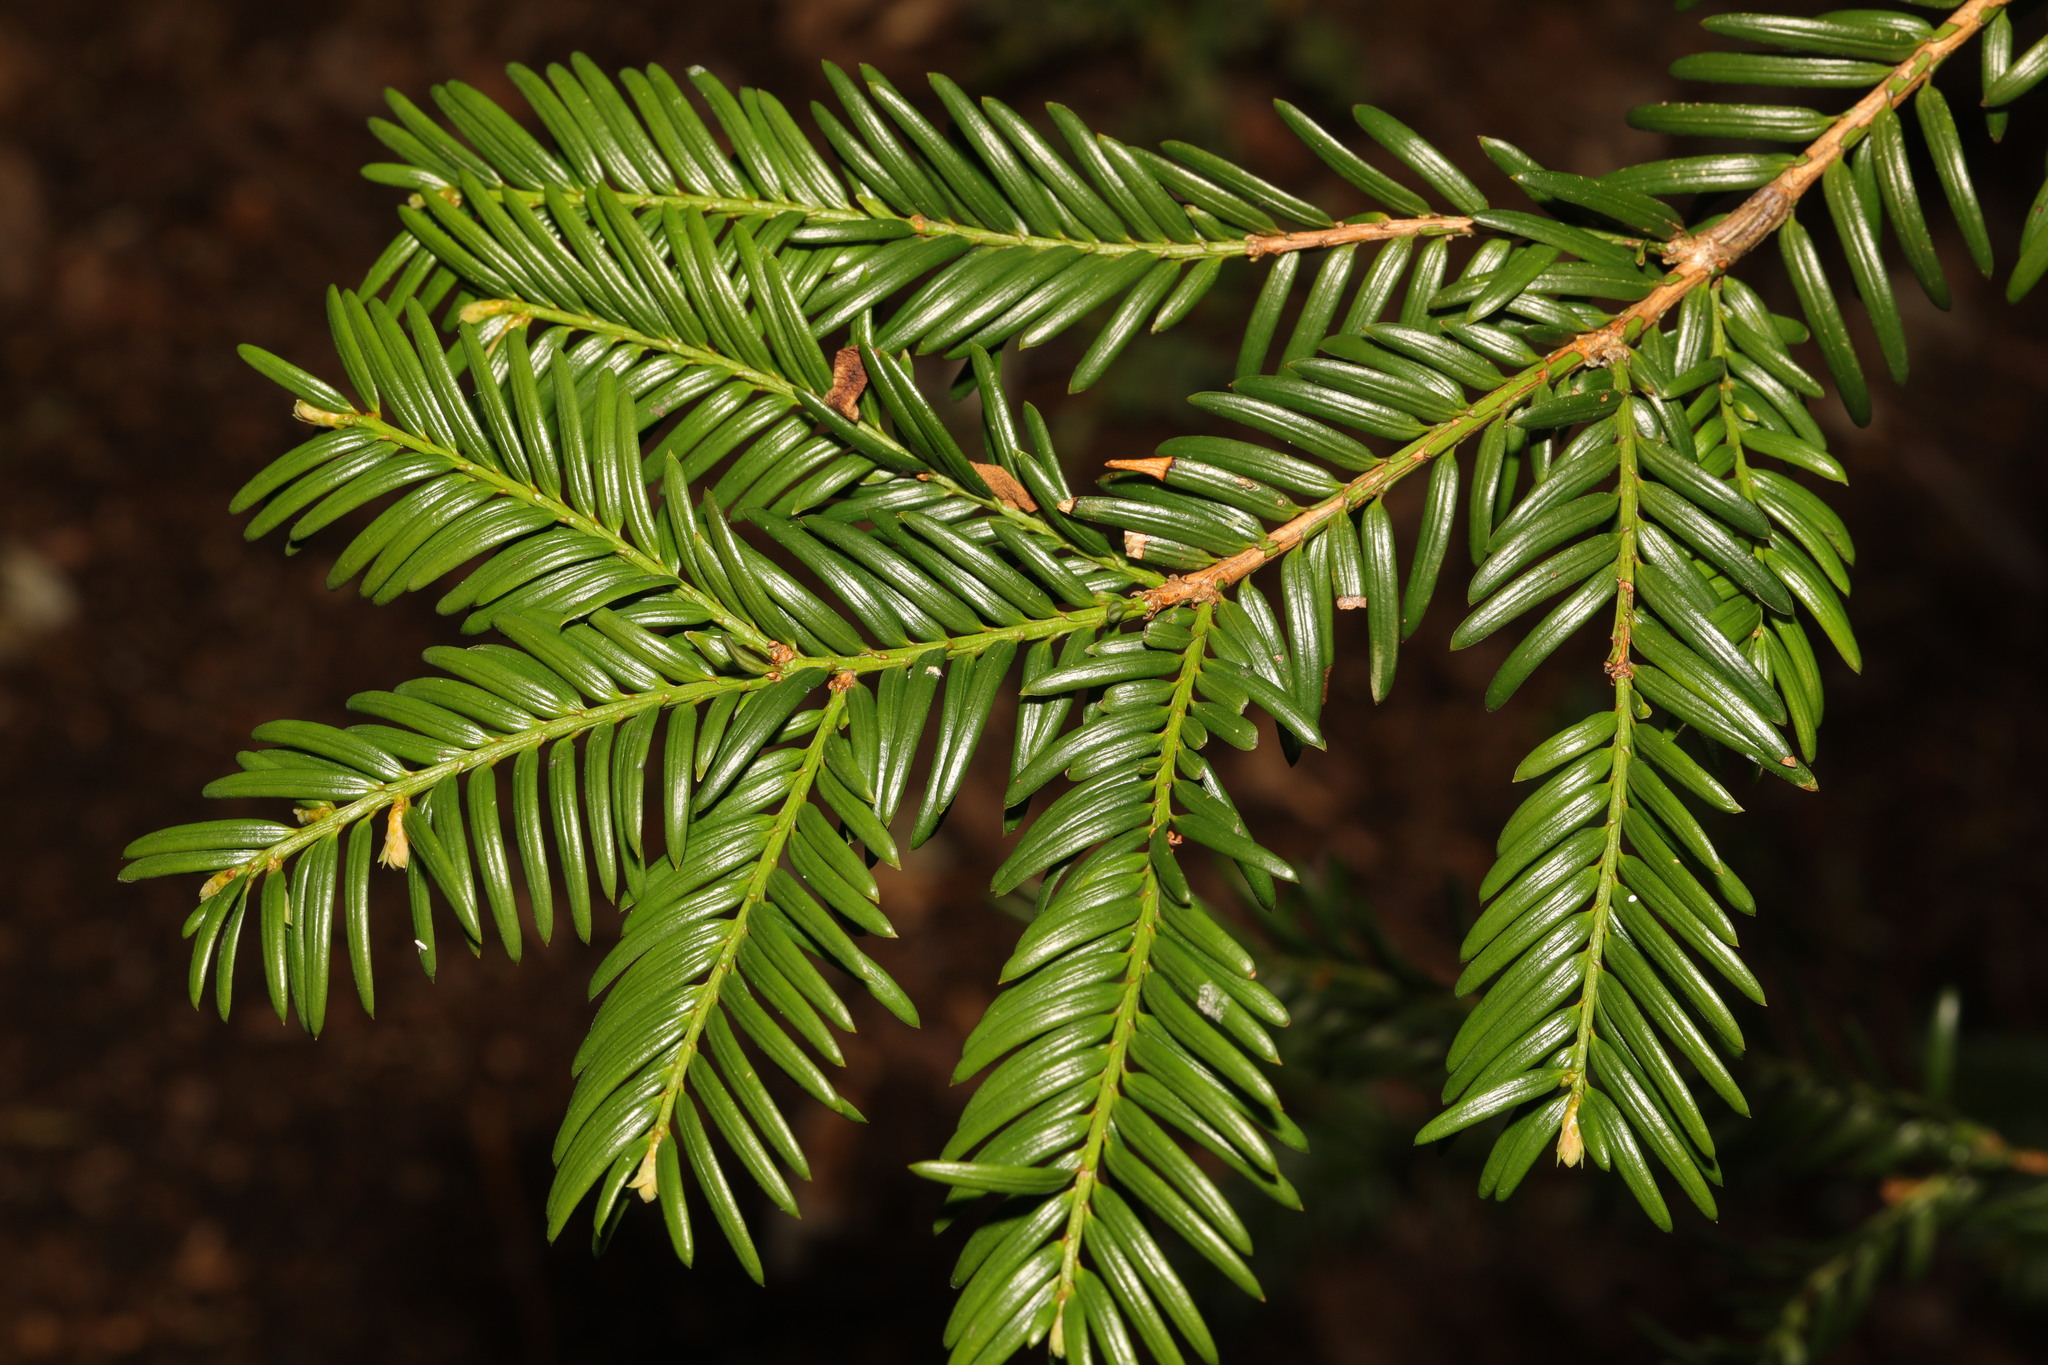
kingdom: Plantae
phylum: Tracheophyta
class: Pinopsida
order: Pinales
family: Taxaceae
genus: Taxus
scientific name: Taxus baccata
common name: Yew
